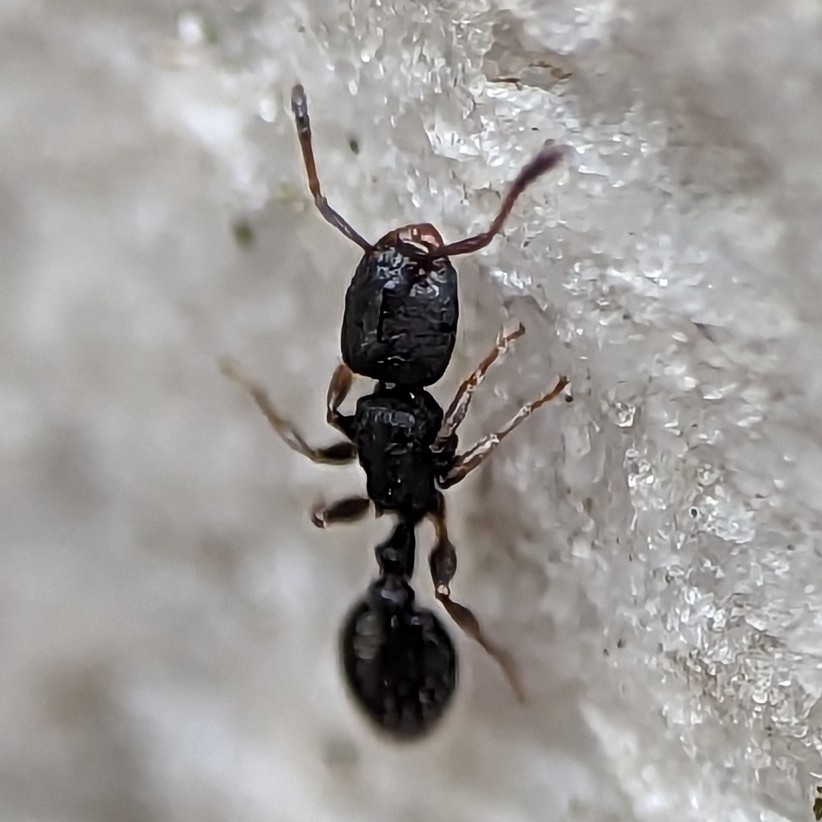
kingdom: Animalia
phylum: Arthropoda
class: Insecta
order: Hymenoptera
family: Formicidae
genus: Leptothorax
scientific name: Leptothorax schaumii
